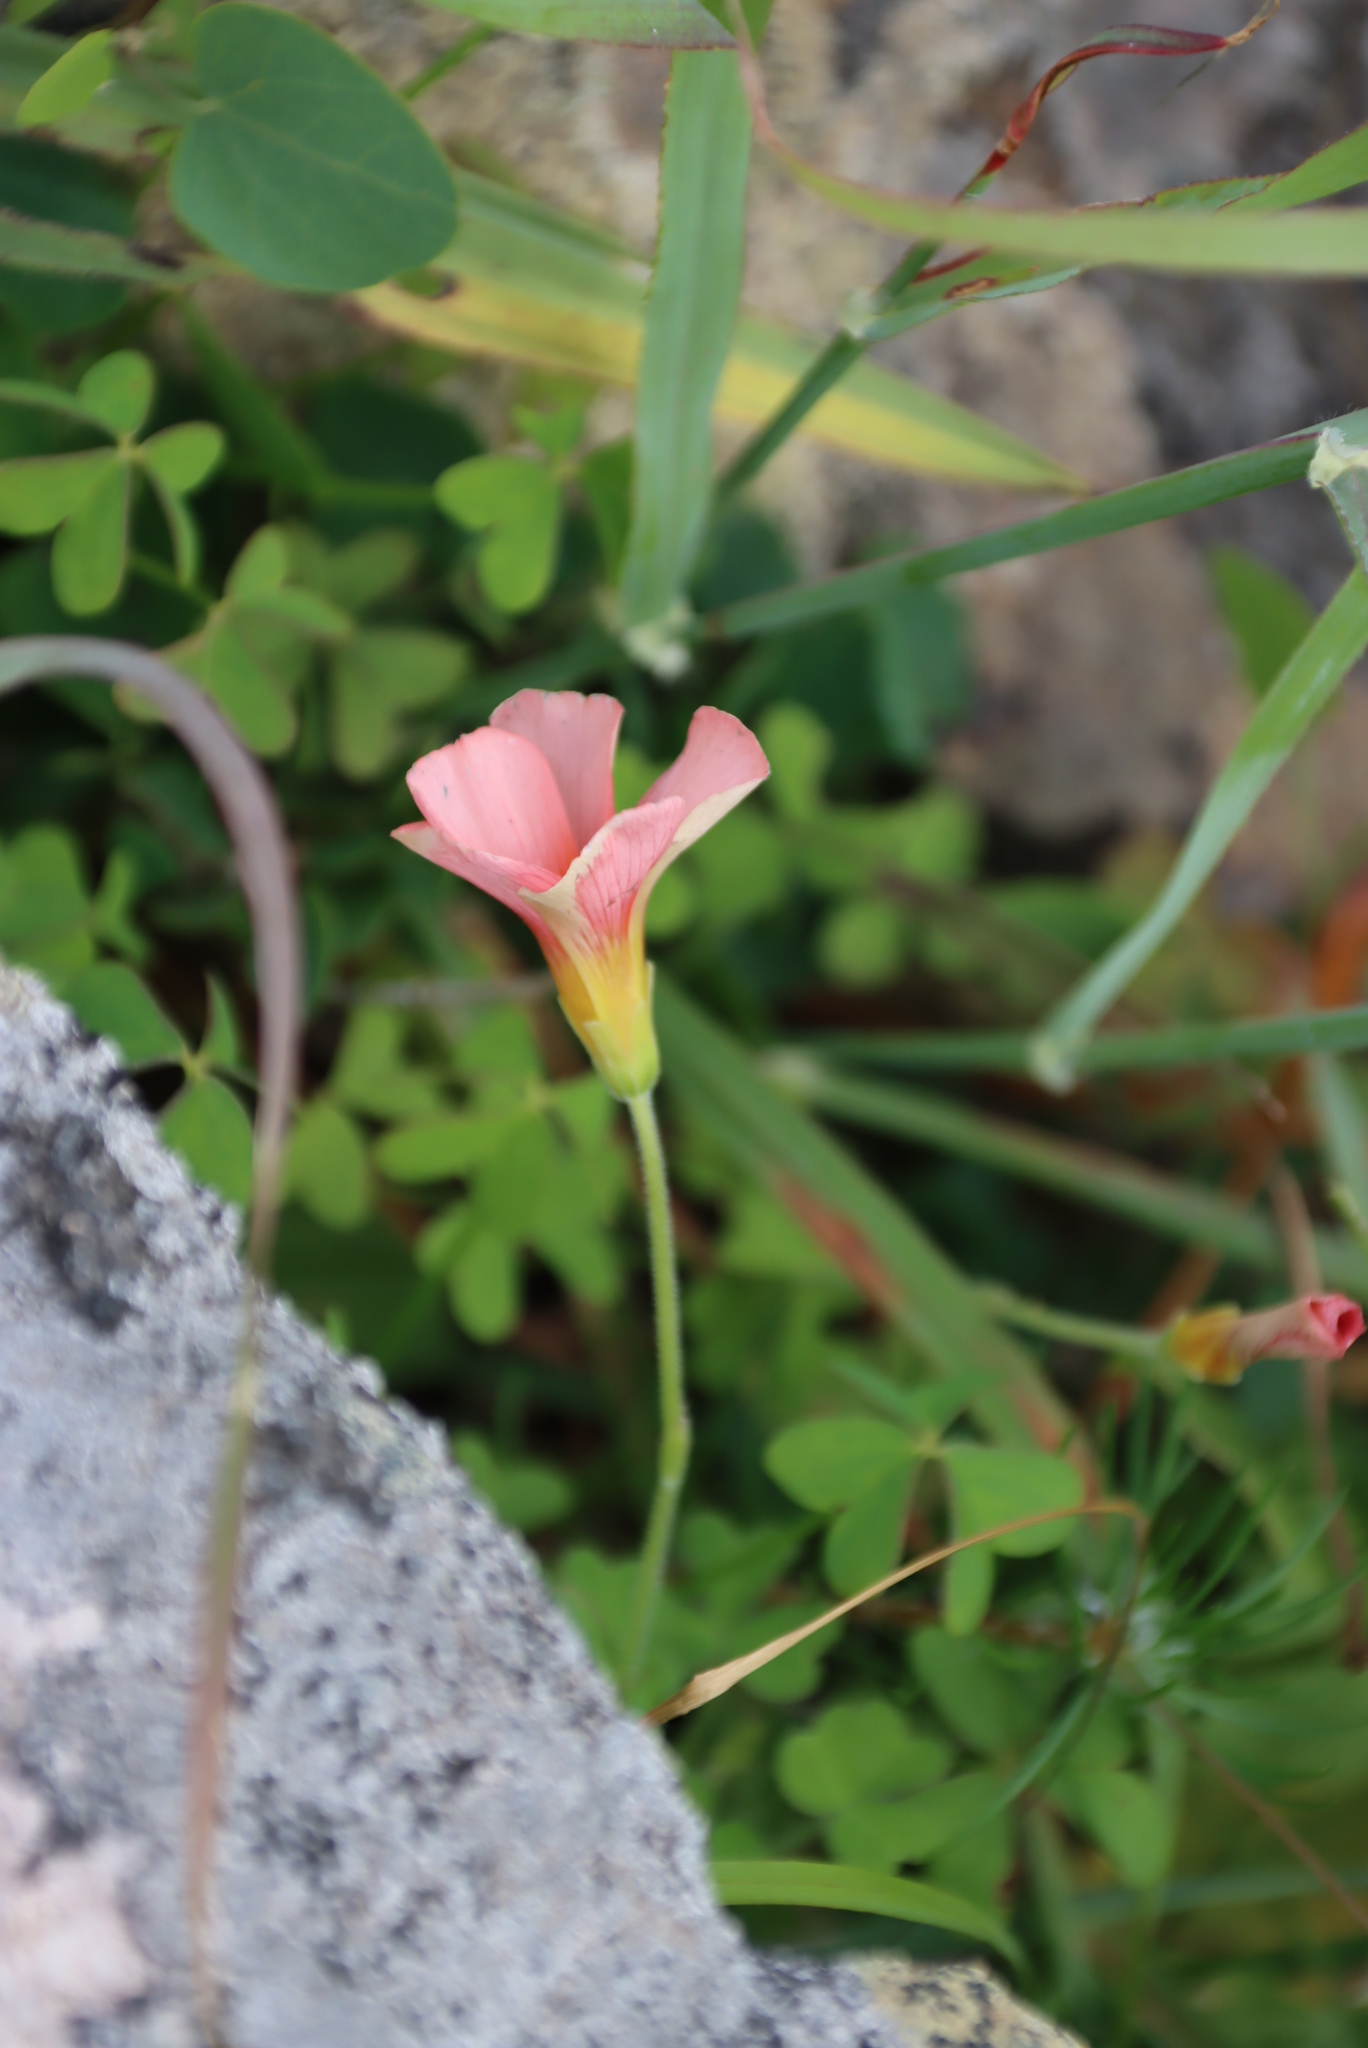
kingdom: Plantae
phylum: Tracheophyta
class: Magnoliopsida
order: Oxalidales
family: Oxalidaceae
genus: Oxalis
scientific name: Oxalis obtusa
